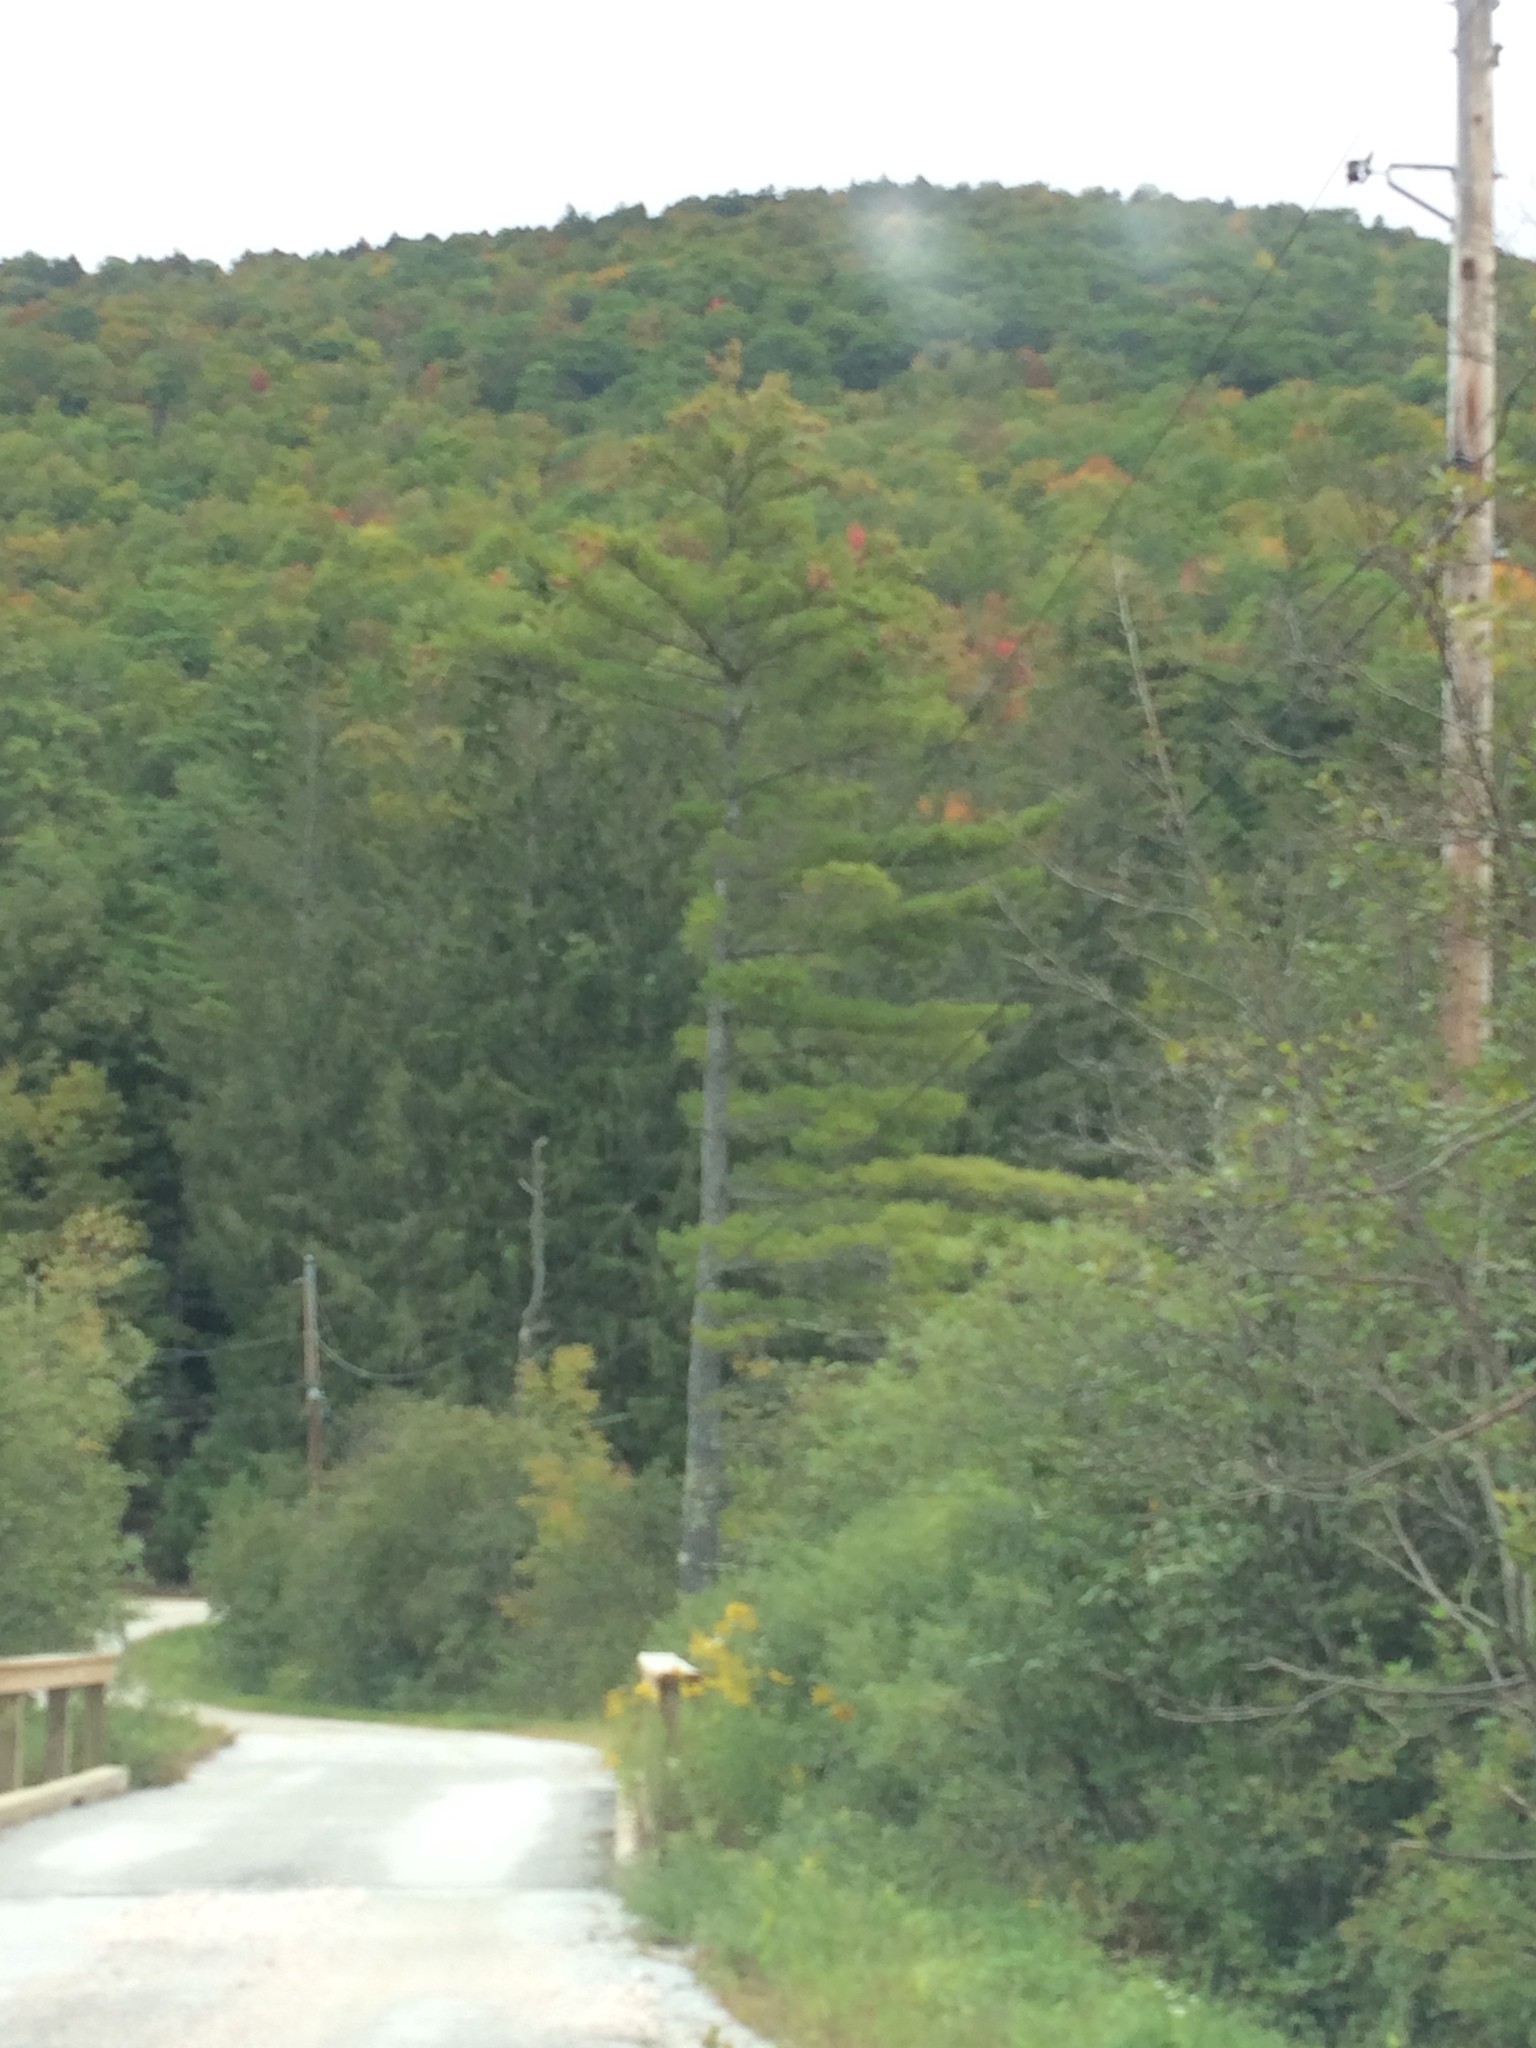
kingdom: Plantae
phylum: Tracheophyta
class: Pinopsida
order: Pinales
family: Pinaceae
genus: Pinus
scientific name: Pinus strobus
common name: Weymouth pine
